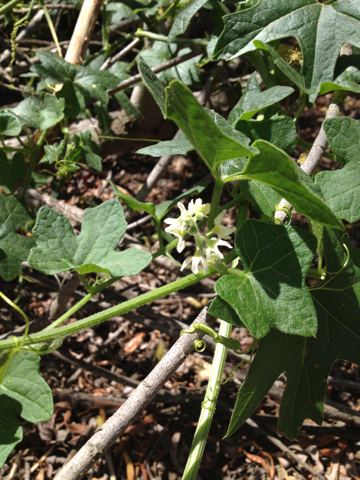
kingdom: Plantae
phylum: Tracheophyta
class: Magnoliopsida
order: Cucurbitales
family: Cucurbitaceae
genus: Marah
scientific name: Marah macrocarpa
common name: Cucamonga manroot
